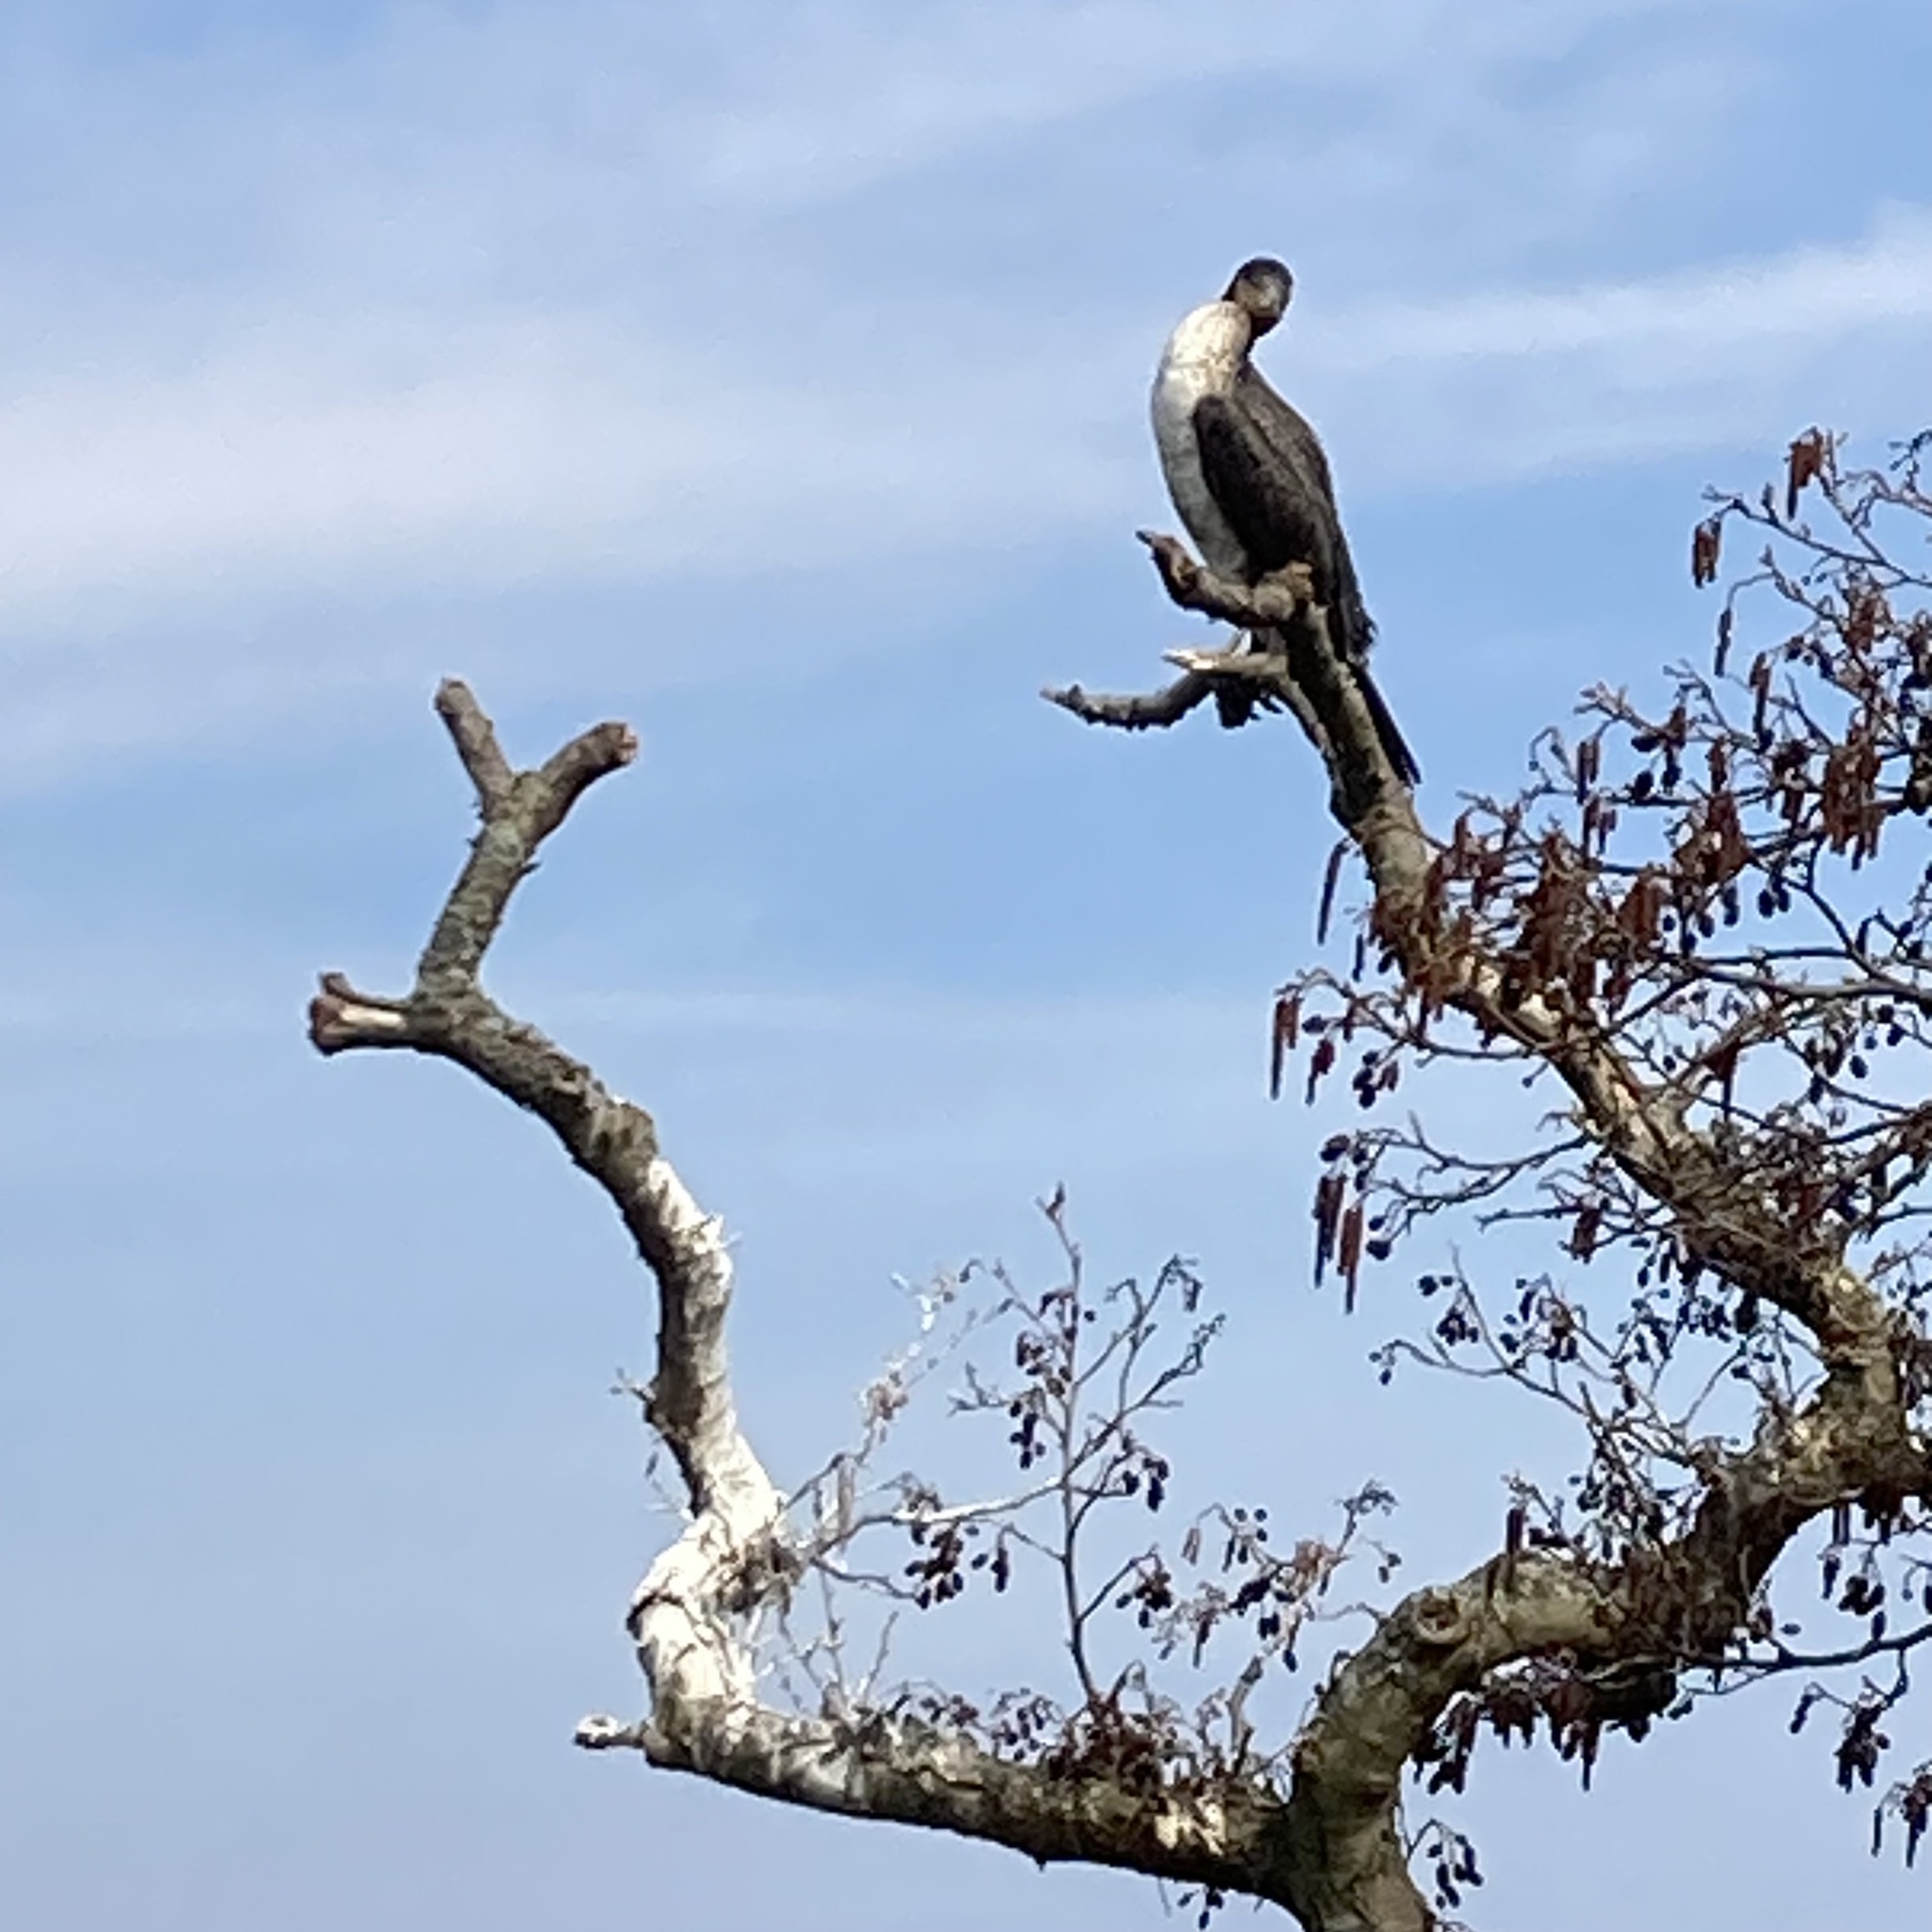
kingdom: Animalia
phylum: Chordata
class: Aves
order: Suliformes
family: Phalacrocoracidae
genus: Phalacrocorax
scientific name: Phalacrocorax carbo
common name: Great cormorant
